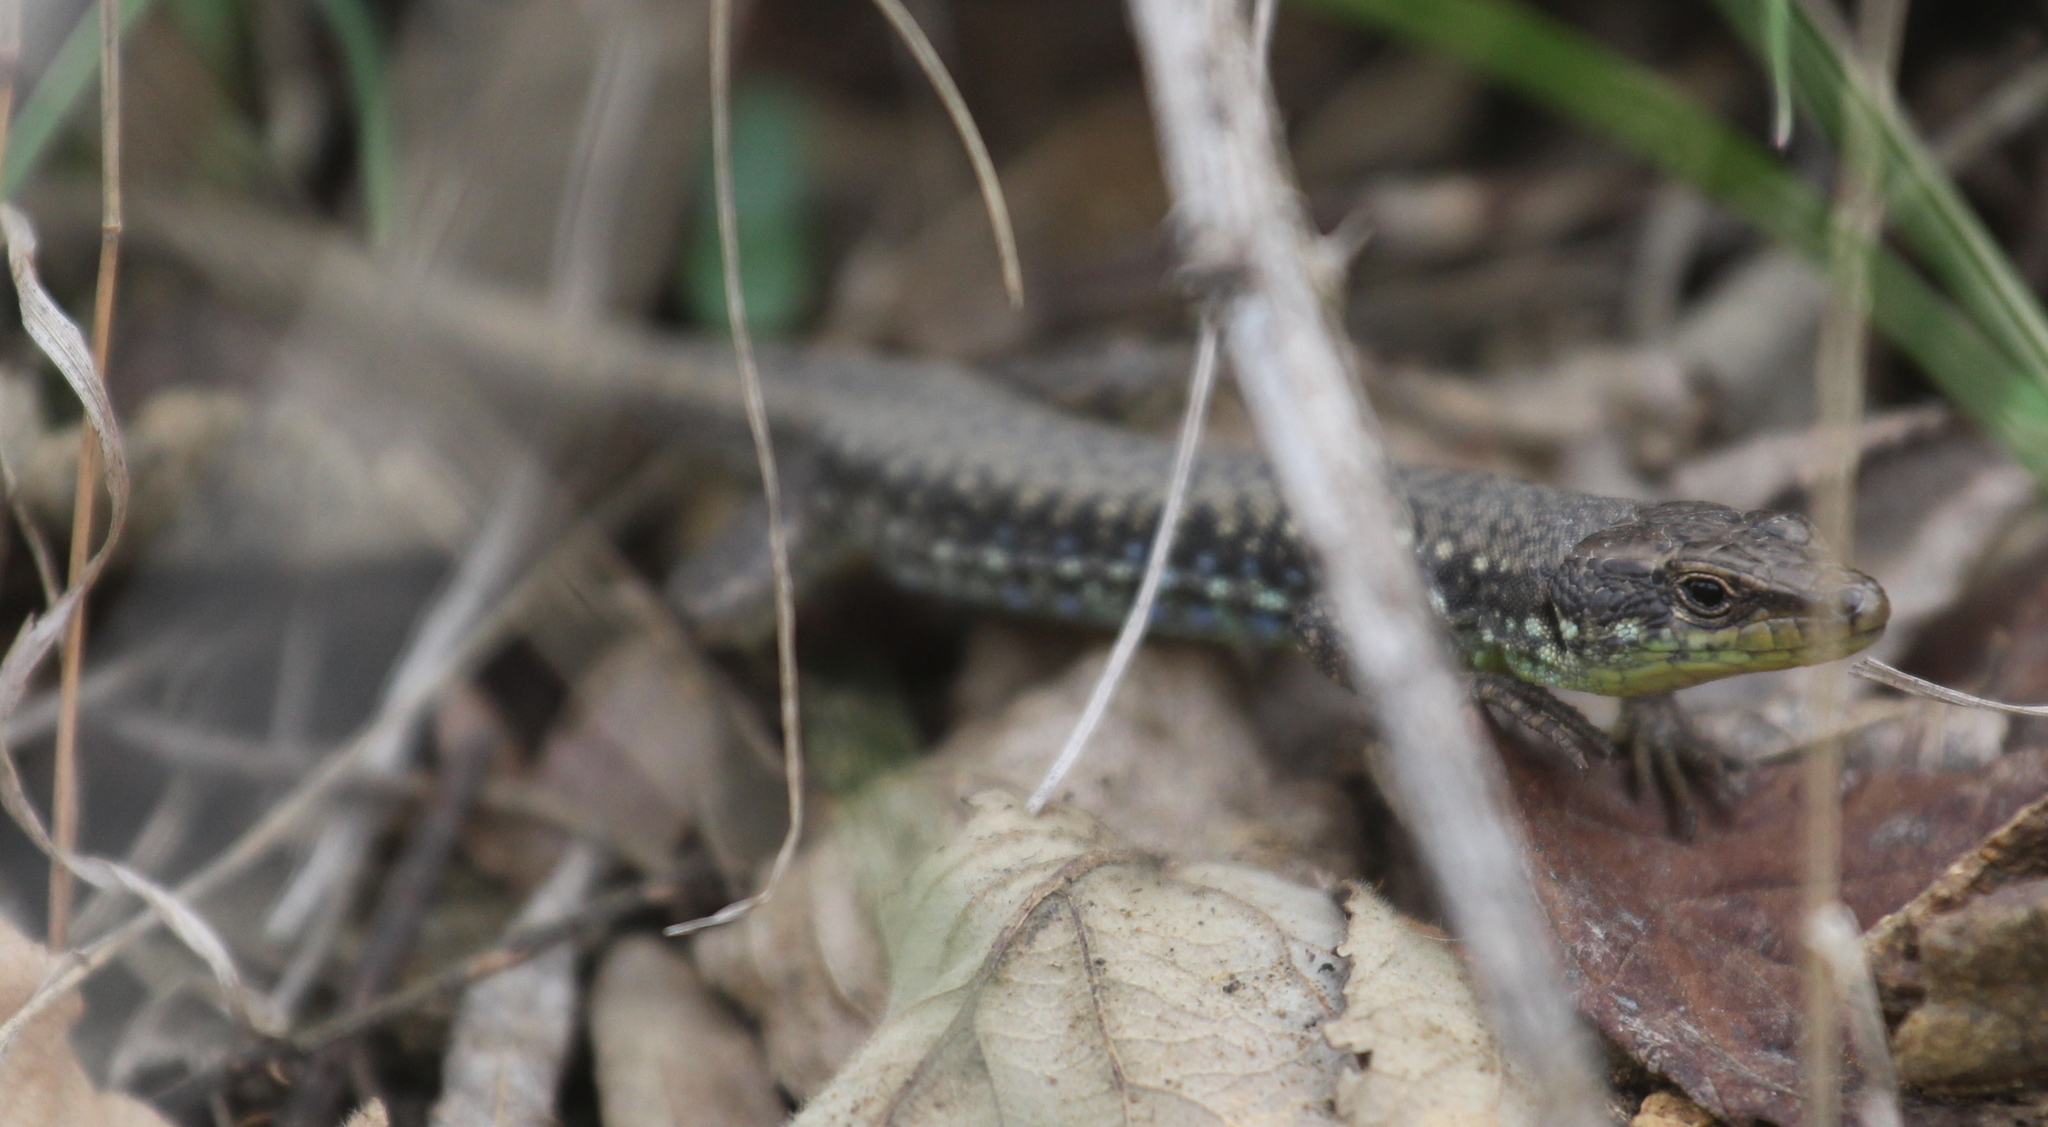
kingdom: Animalia
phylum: Chordata
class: Squamata
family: Lacertidae
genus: Darevskia
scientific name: Darevskia raddei
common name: Radde's lizard
